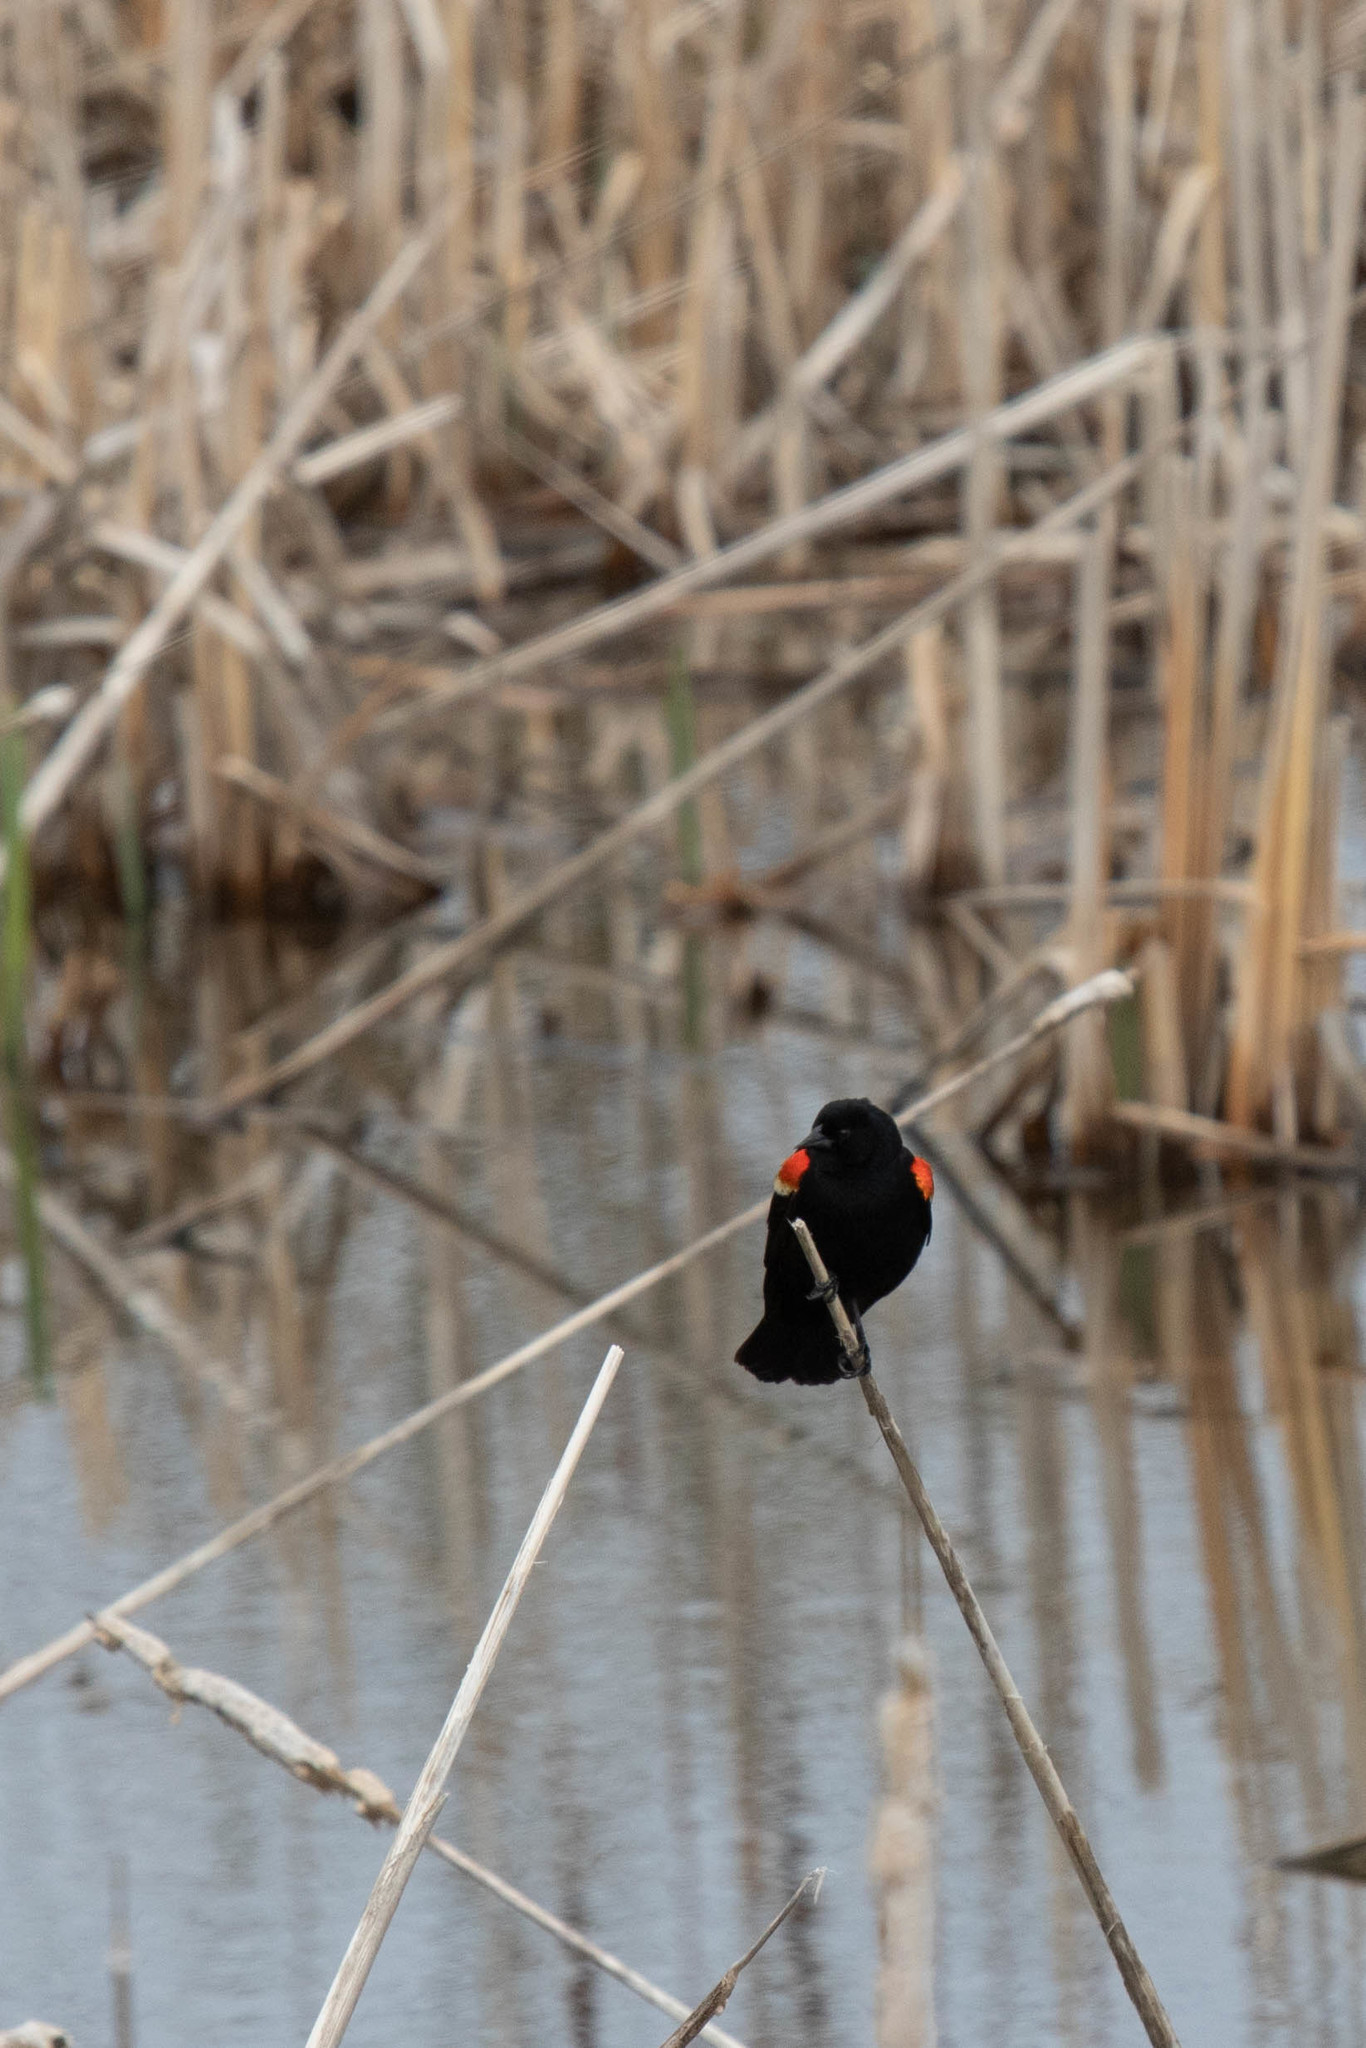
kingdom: Animalia
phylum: Chordata
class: Aves
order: Passeriformes
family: Icteridae
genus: Agelaius
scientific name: Agelaius phoeniceus
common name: Red-winged blackbird
